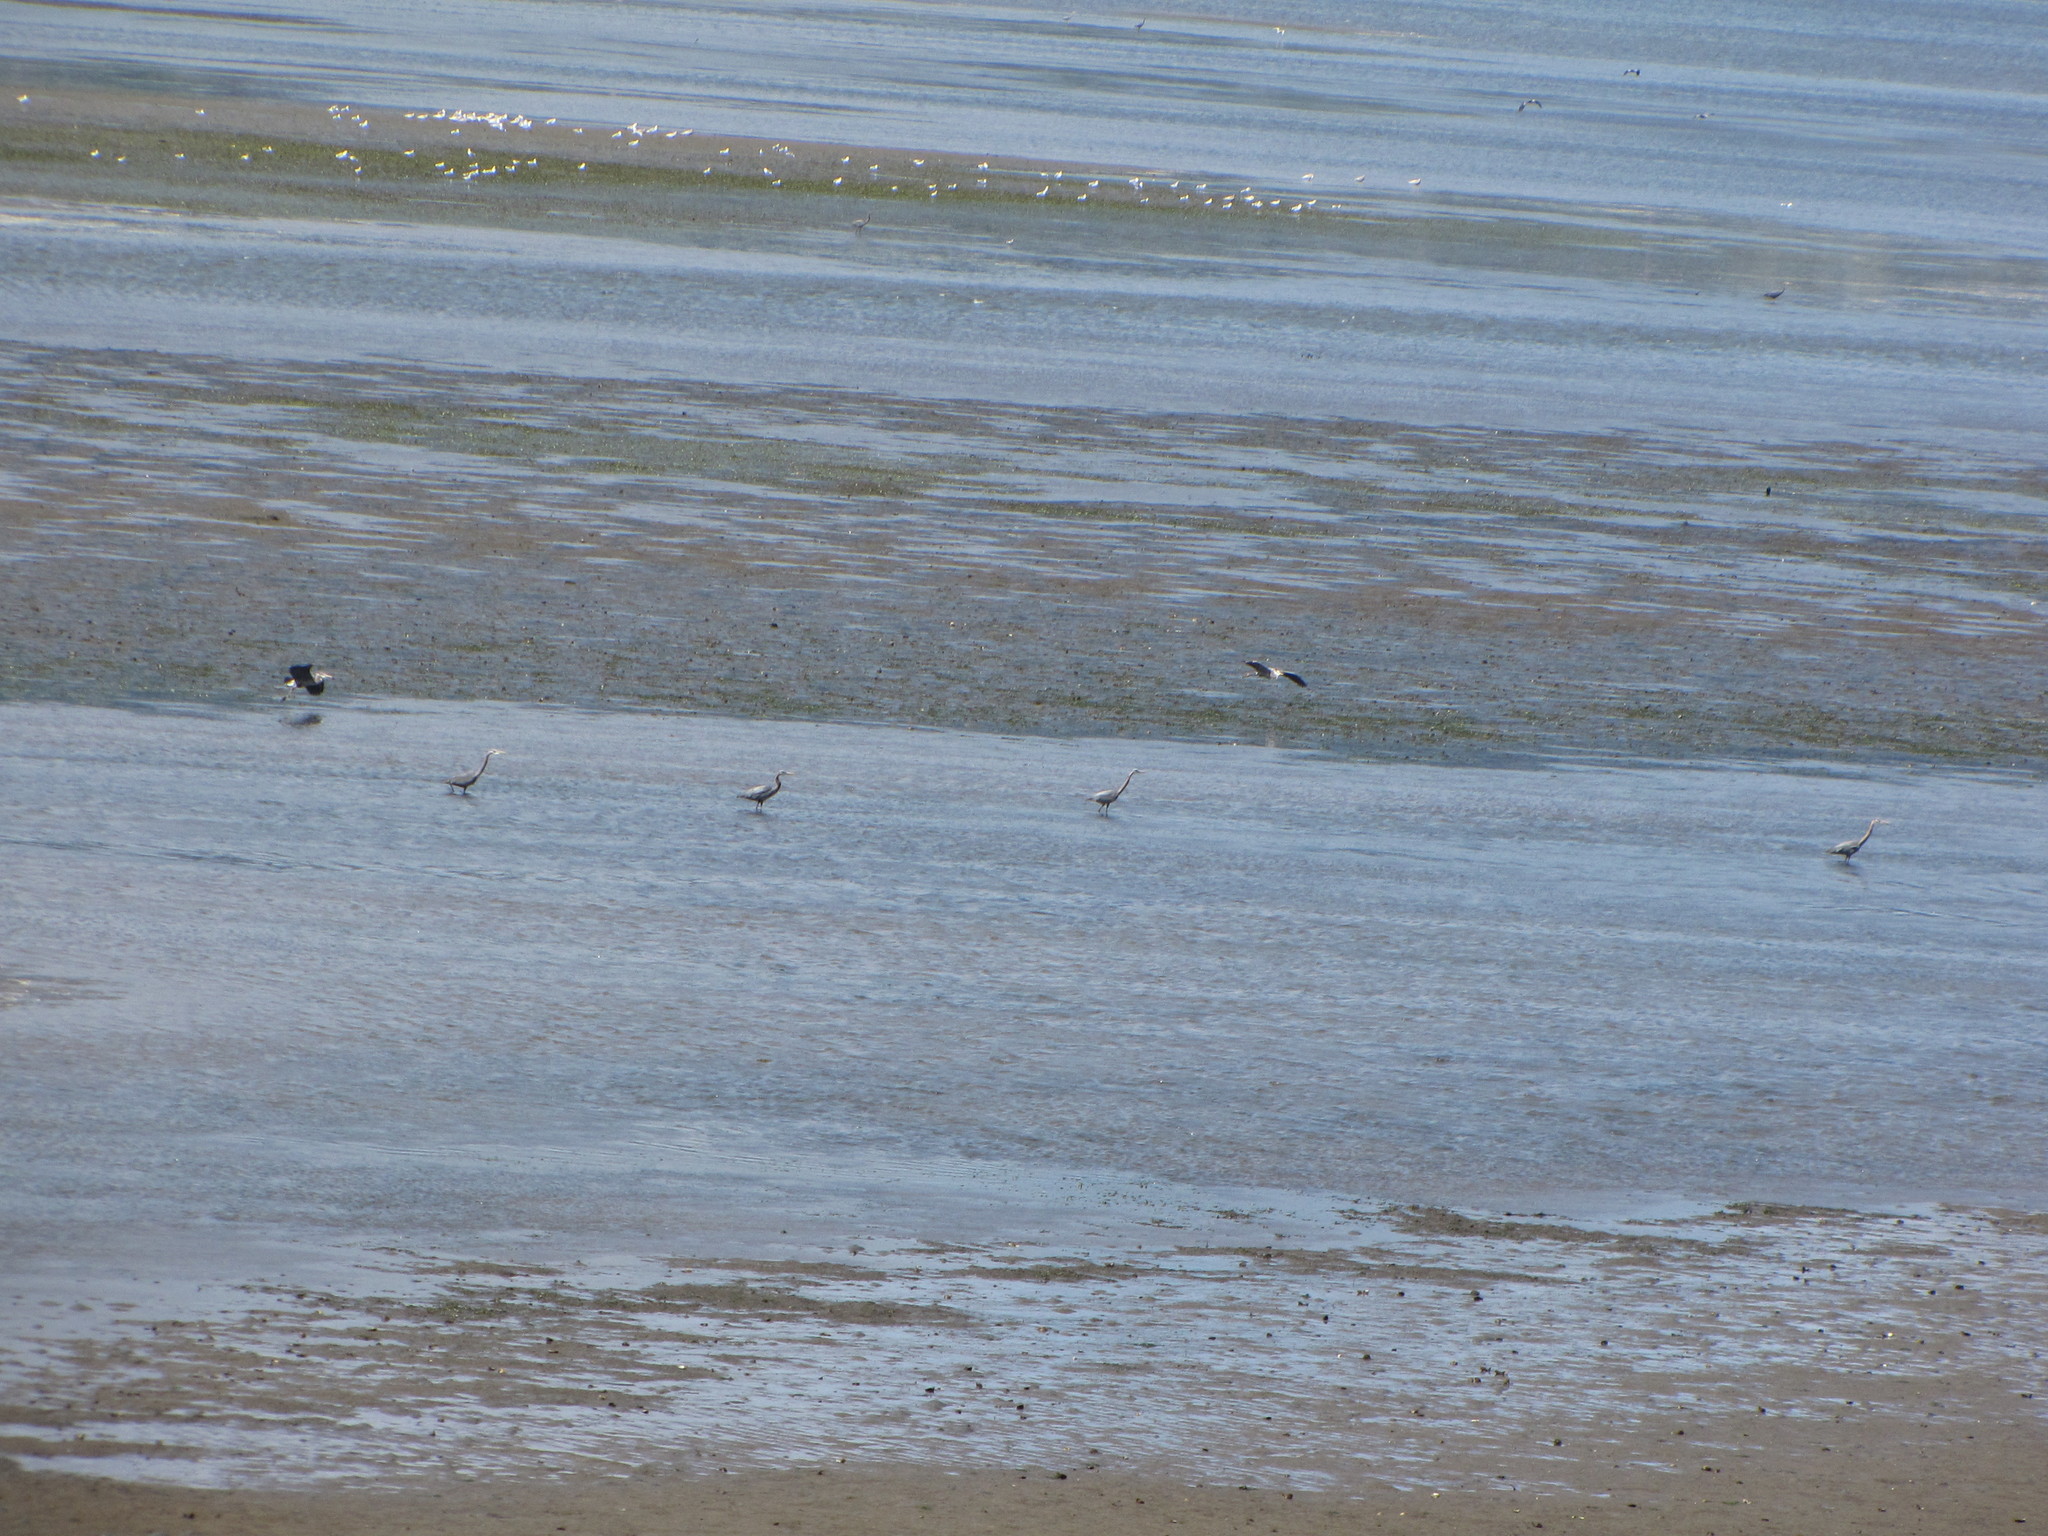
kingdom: Animalia
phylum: Chordata
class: Aves
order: Pelecaniformes
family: Ardeidae
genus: Ardea
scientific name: Ardea herodias
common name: Great blue heron
